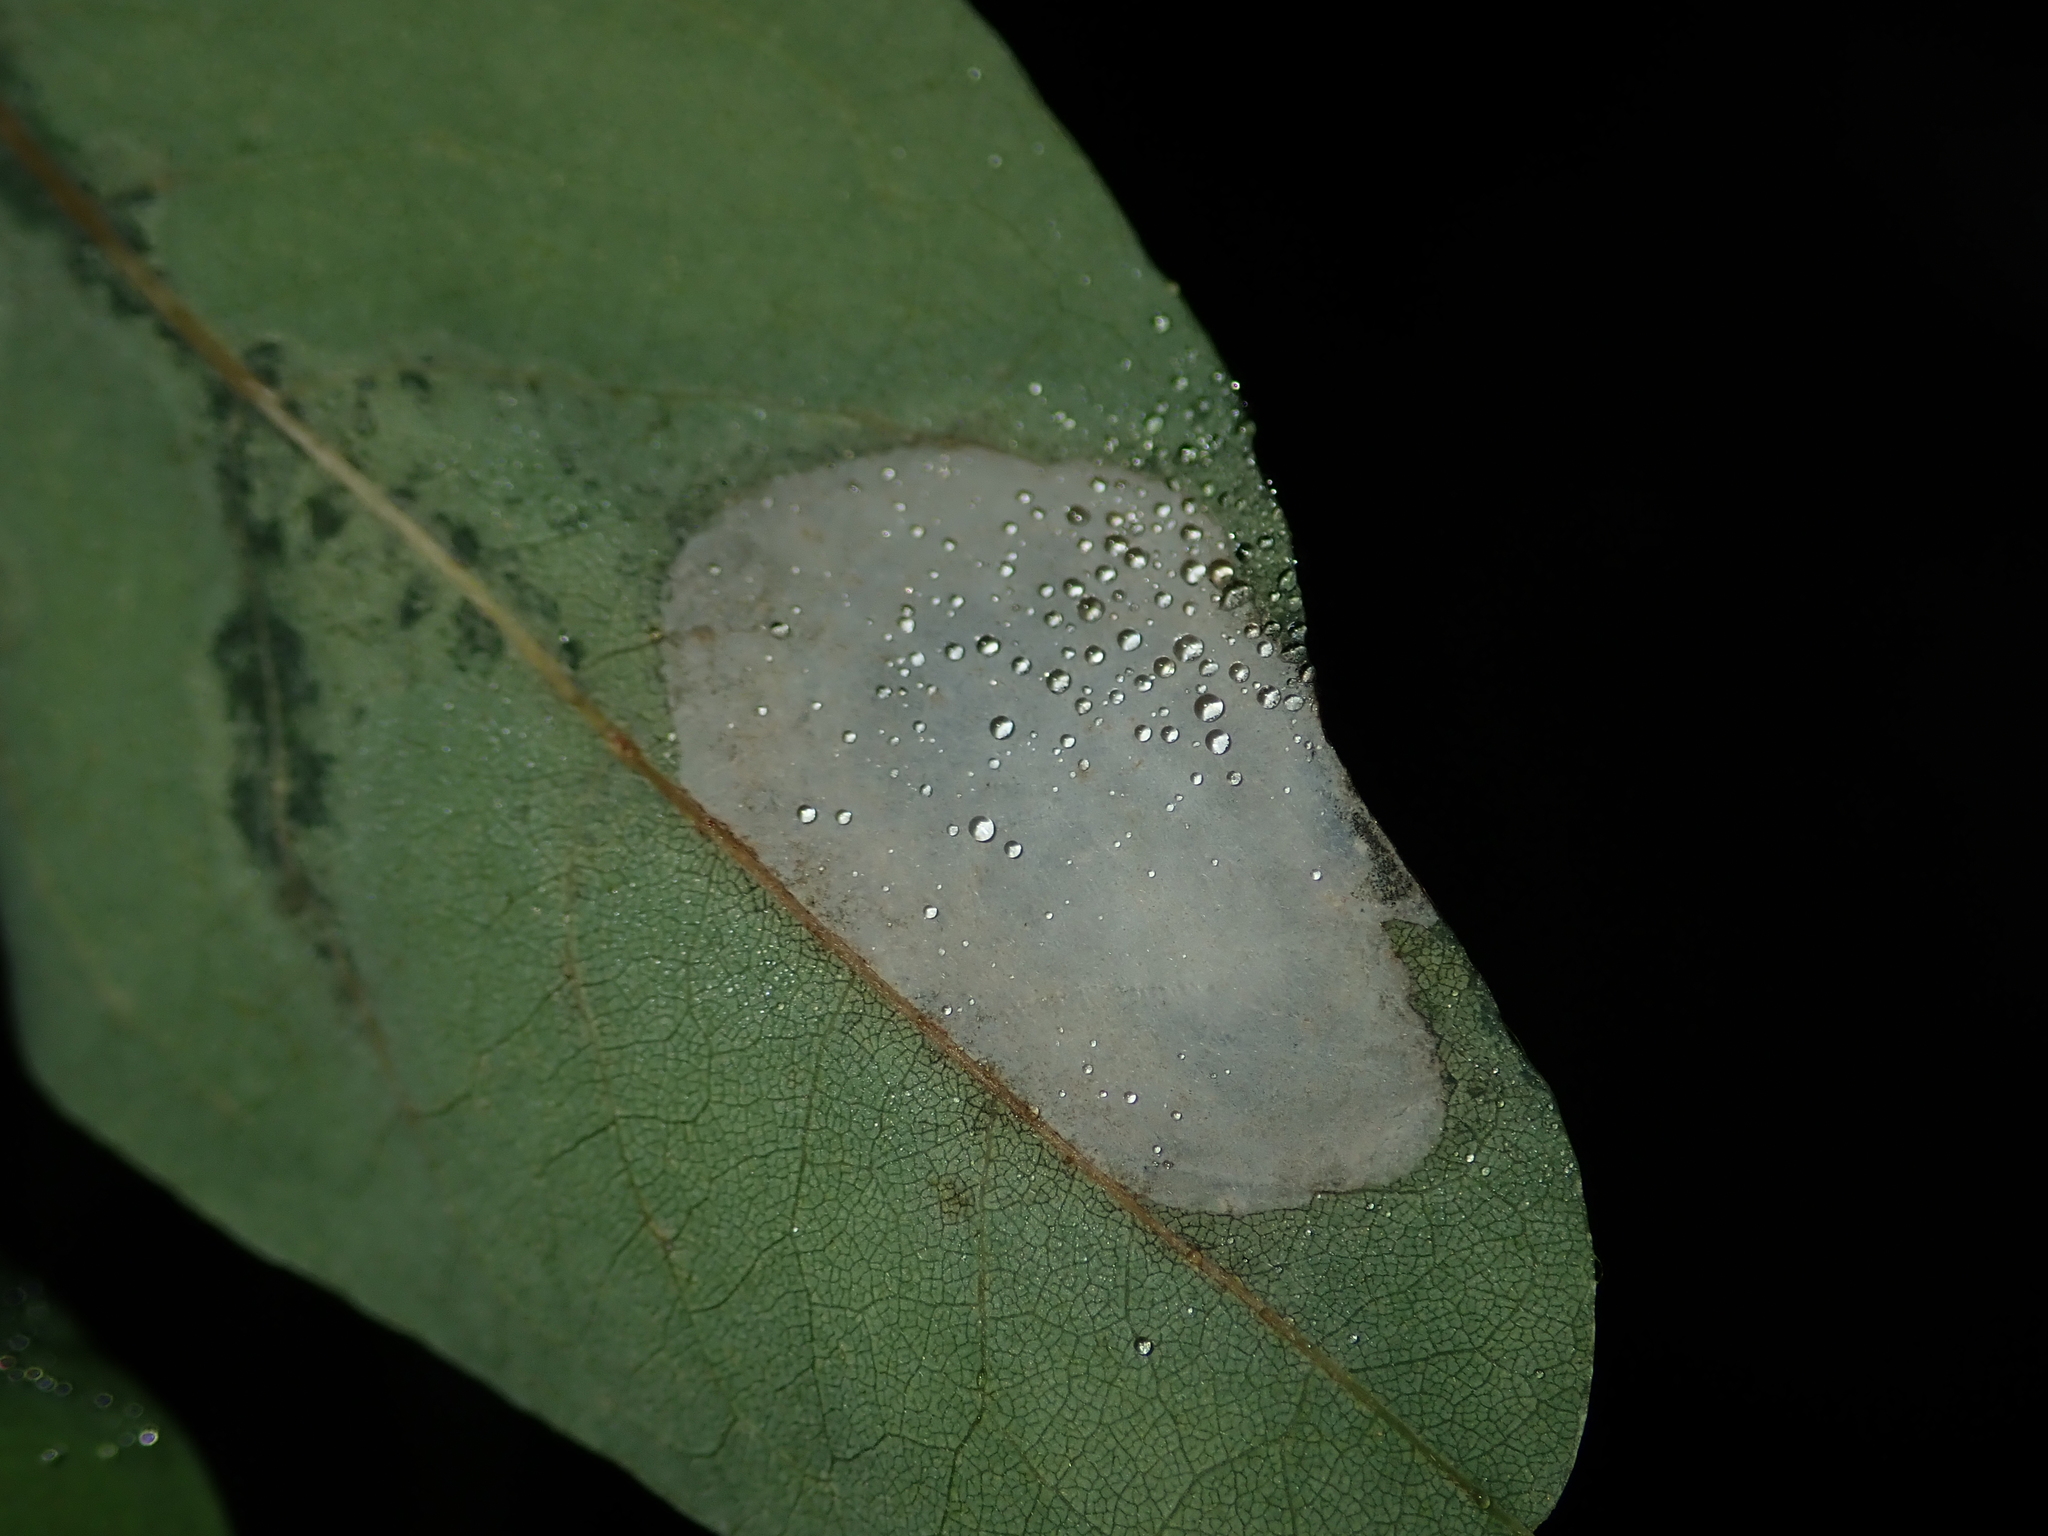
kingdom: Animalia
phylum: Arthropoda
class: Insecta
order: Lepidoptera
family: Gracillariidae
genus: Macrosaccus
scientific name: Macrosaccus robiniella
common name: Leaf blotch miner moth
